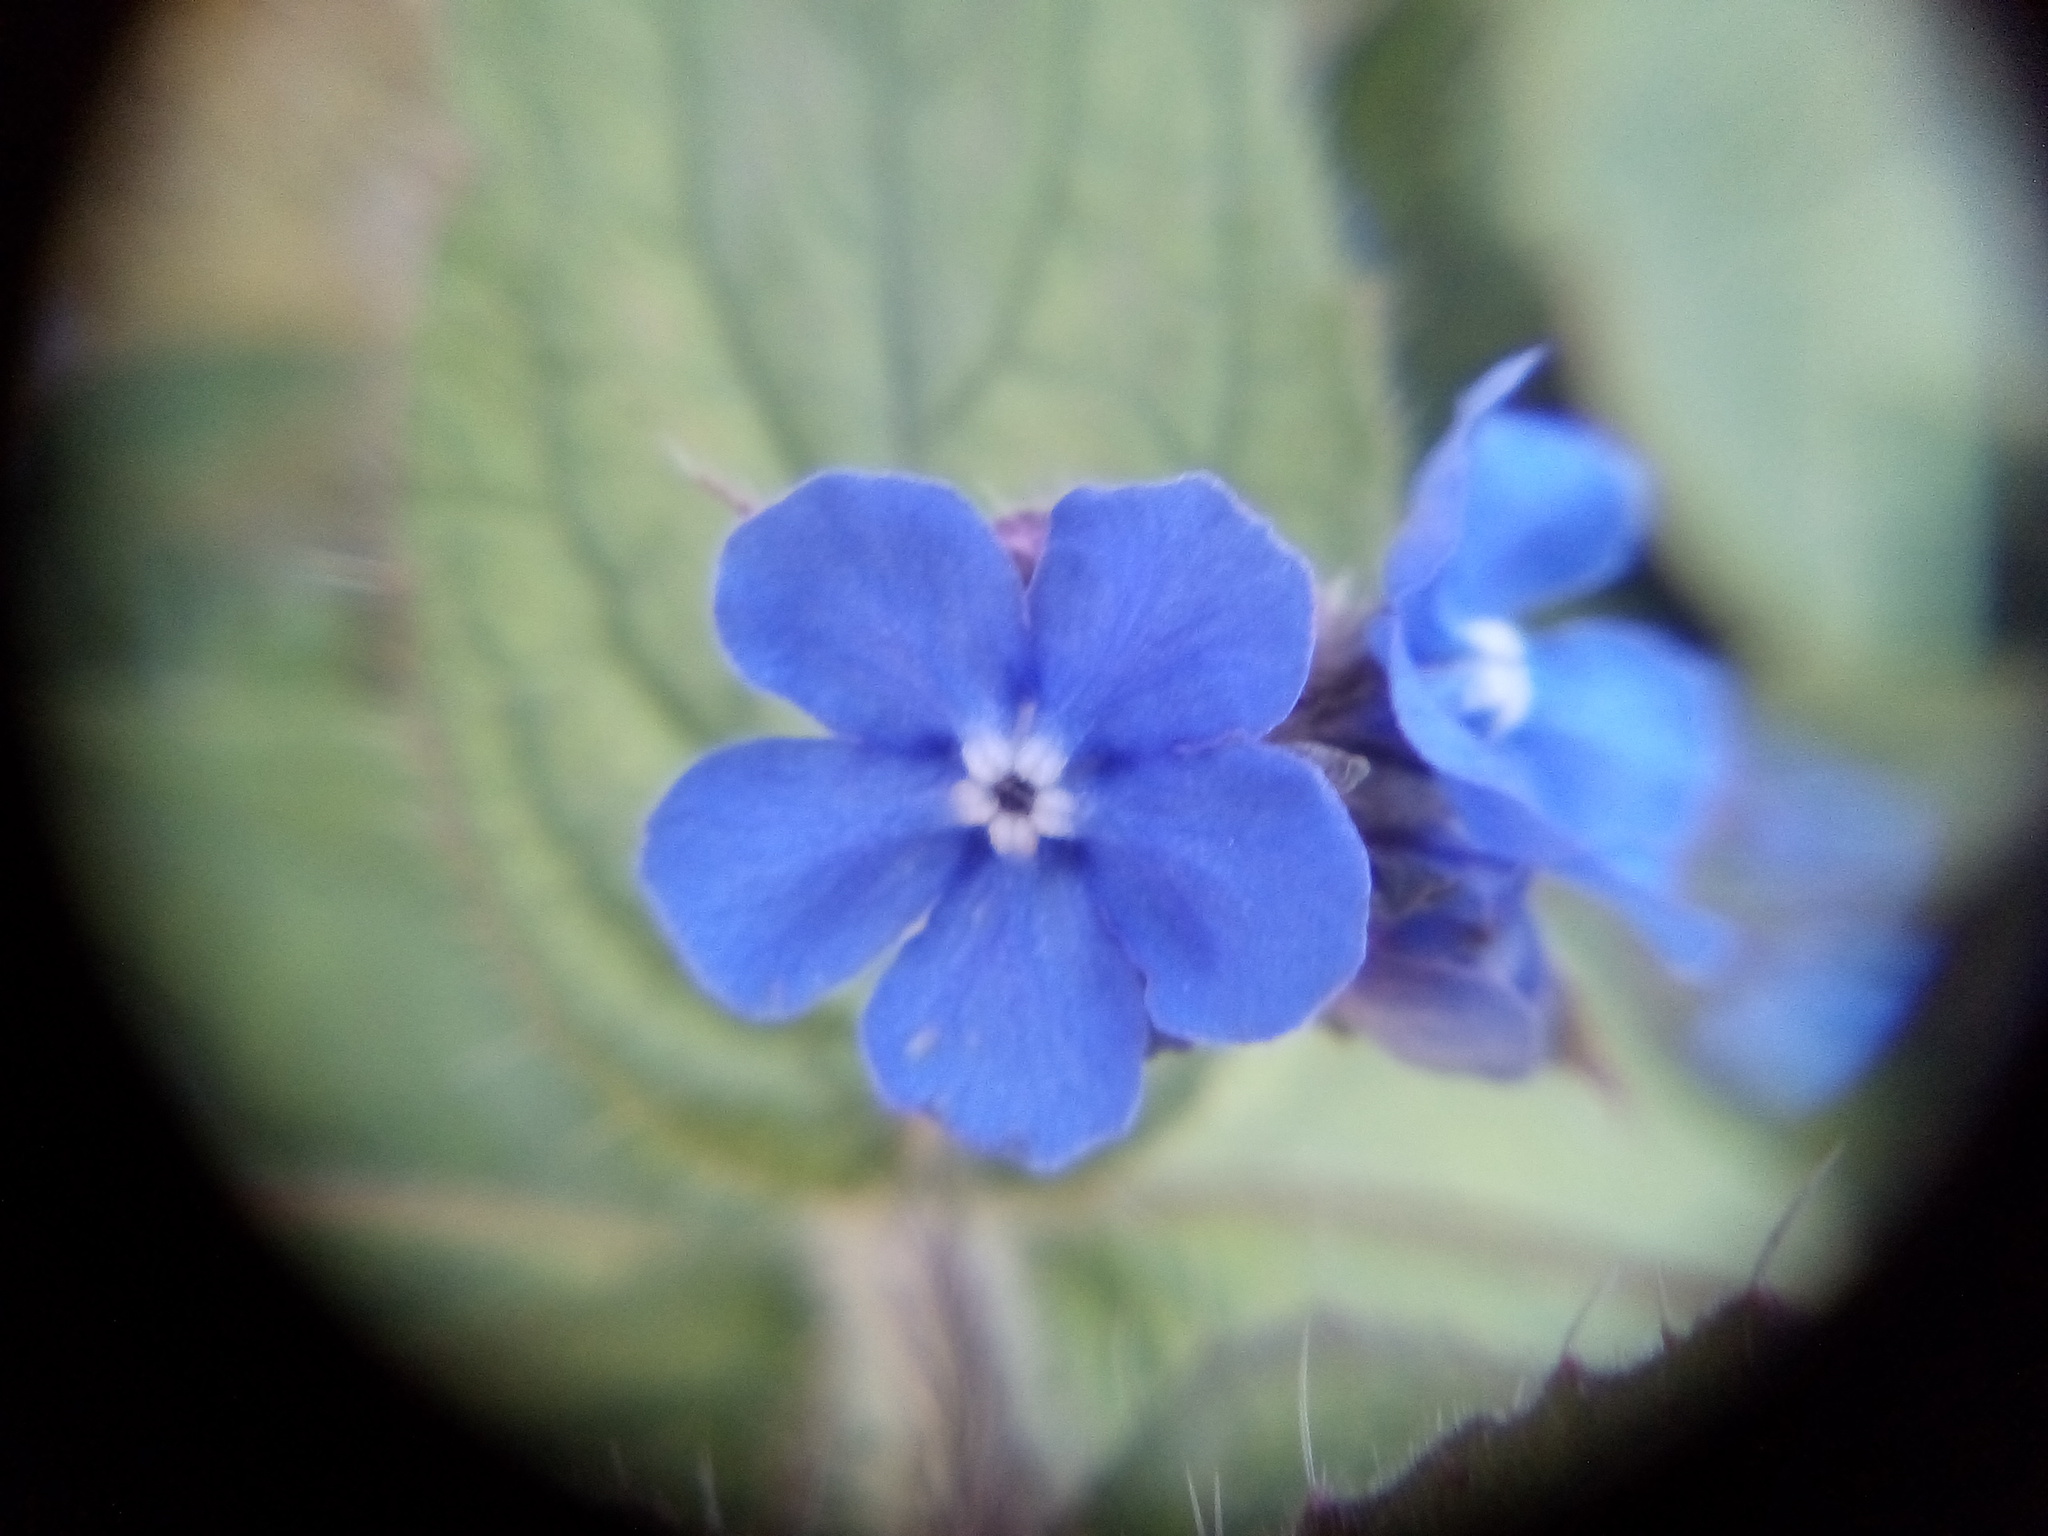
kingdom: Plantae
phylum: Tracheophyta
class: Magnoliopsida
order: Boraginales
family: Boraginaceae
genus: Pentaglottis
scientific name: Pentaglottis sempervirens
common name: Green alkanet
